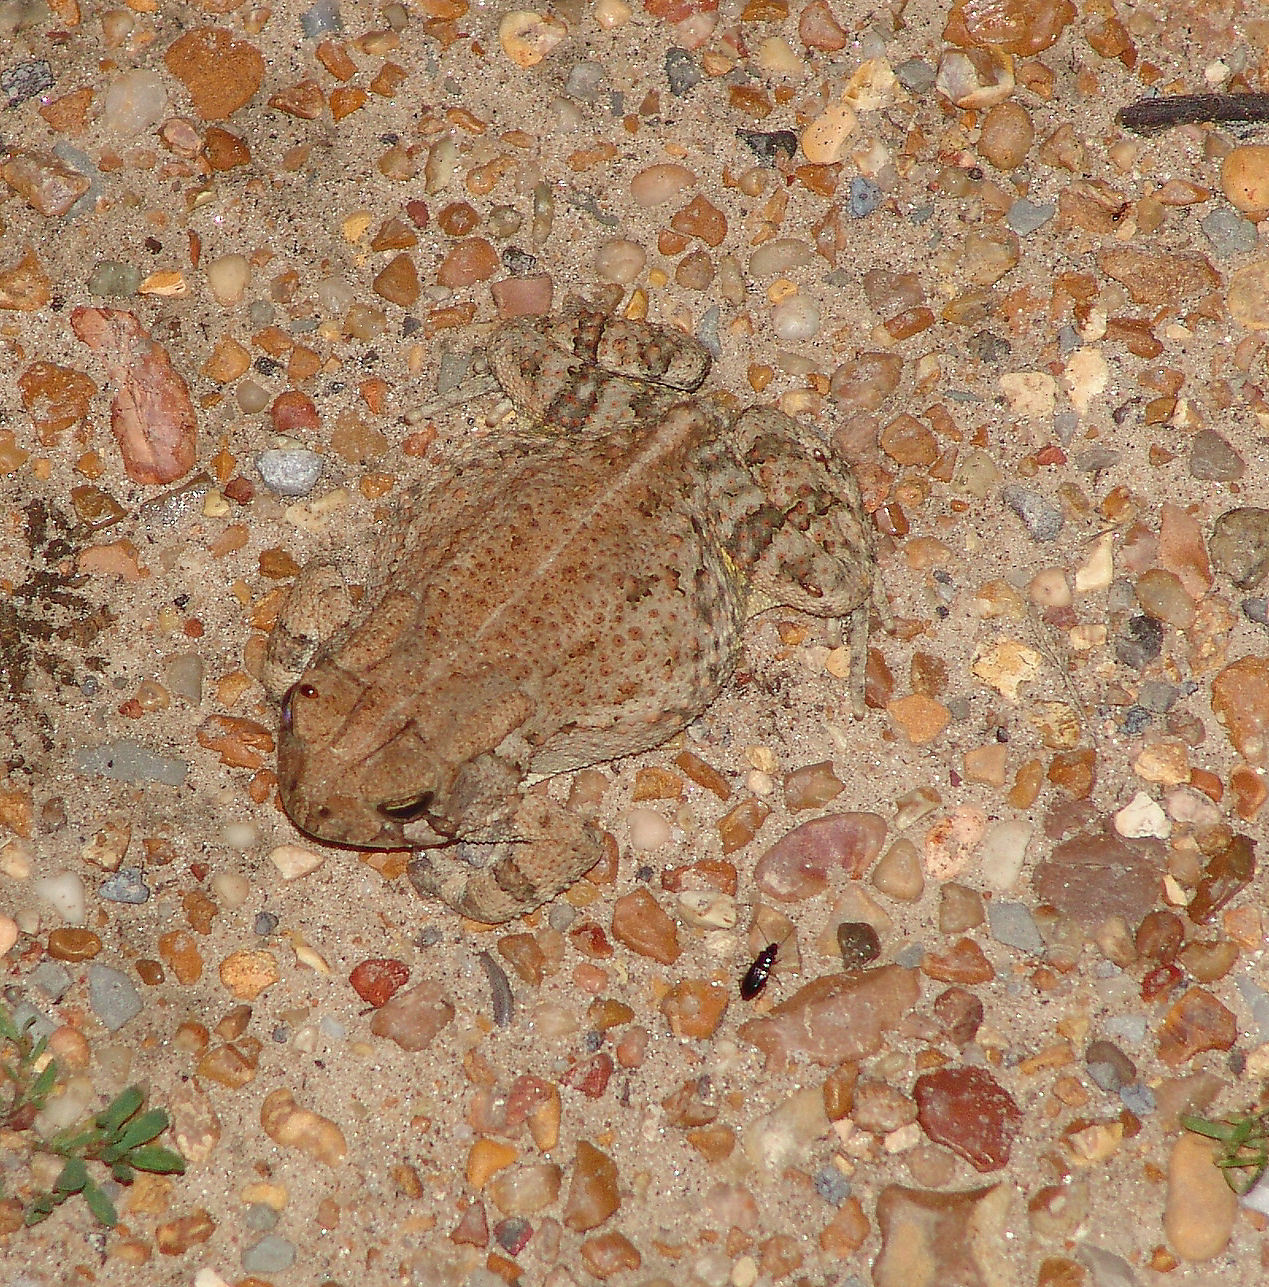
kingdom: Animalia
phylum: Chordata
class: Amphibia
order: Anura
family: Bufonidae
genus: Anaxyrus
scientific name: Anaxyrus americanus
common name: American toad
